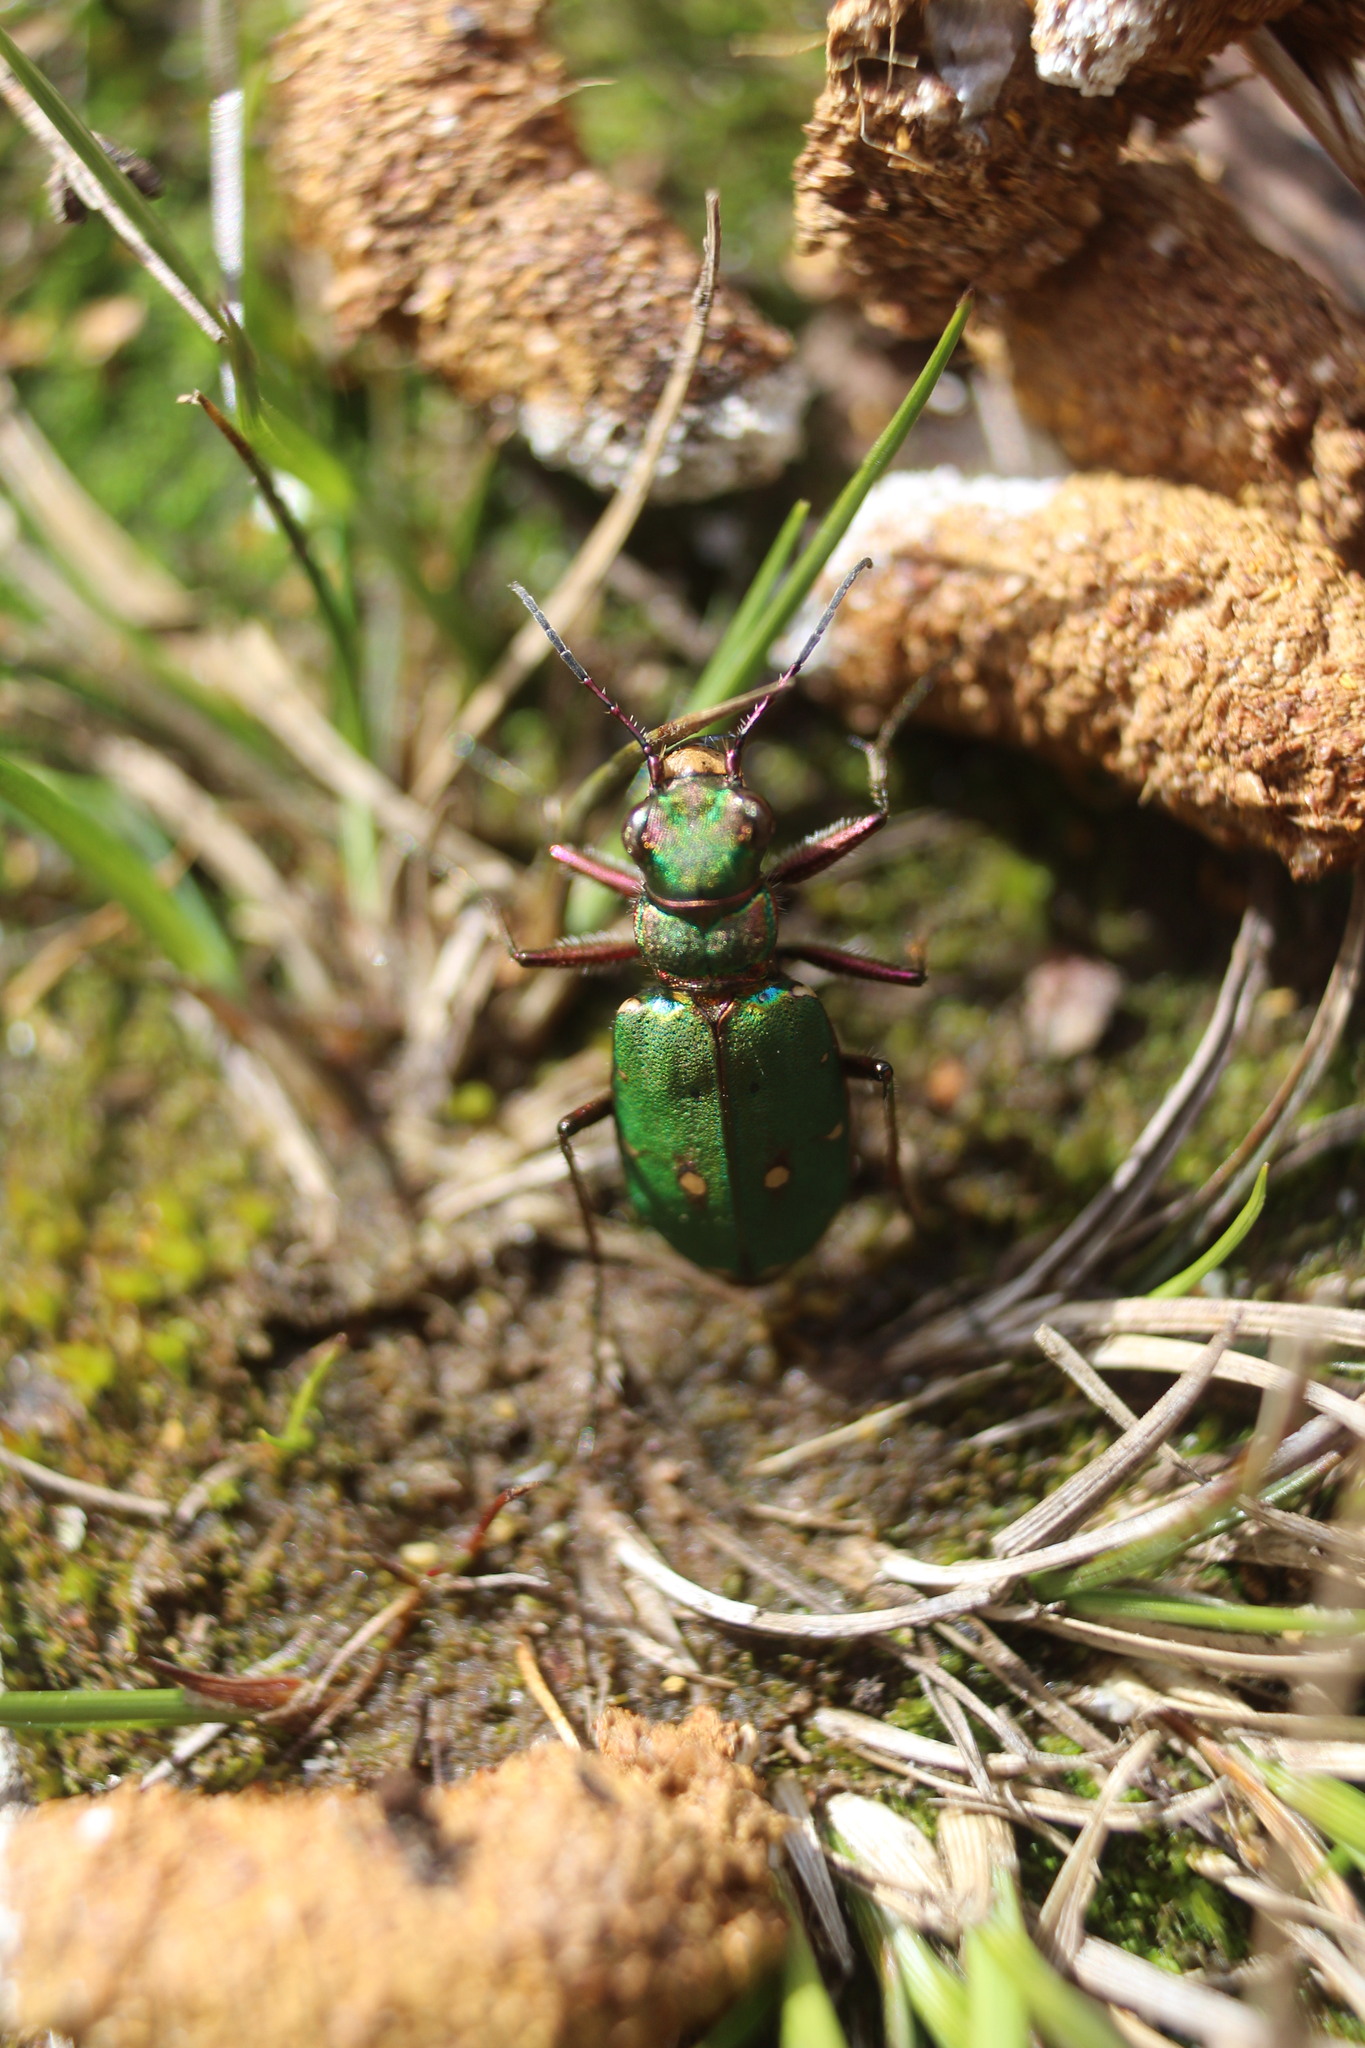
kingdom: Animalia
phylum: Arthropoda
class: Insecta
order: Coleoptera
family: Carabidae
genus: Cicindela
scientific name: Cicindela campestris
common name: Common tiger beetle
